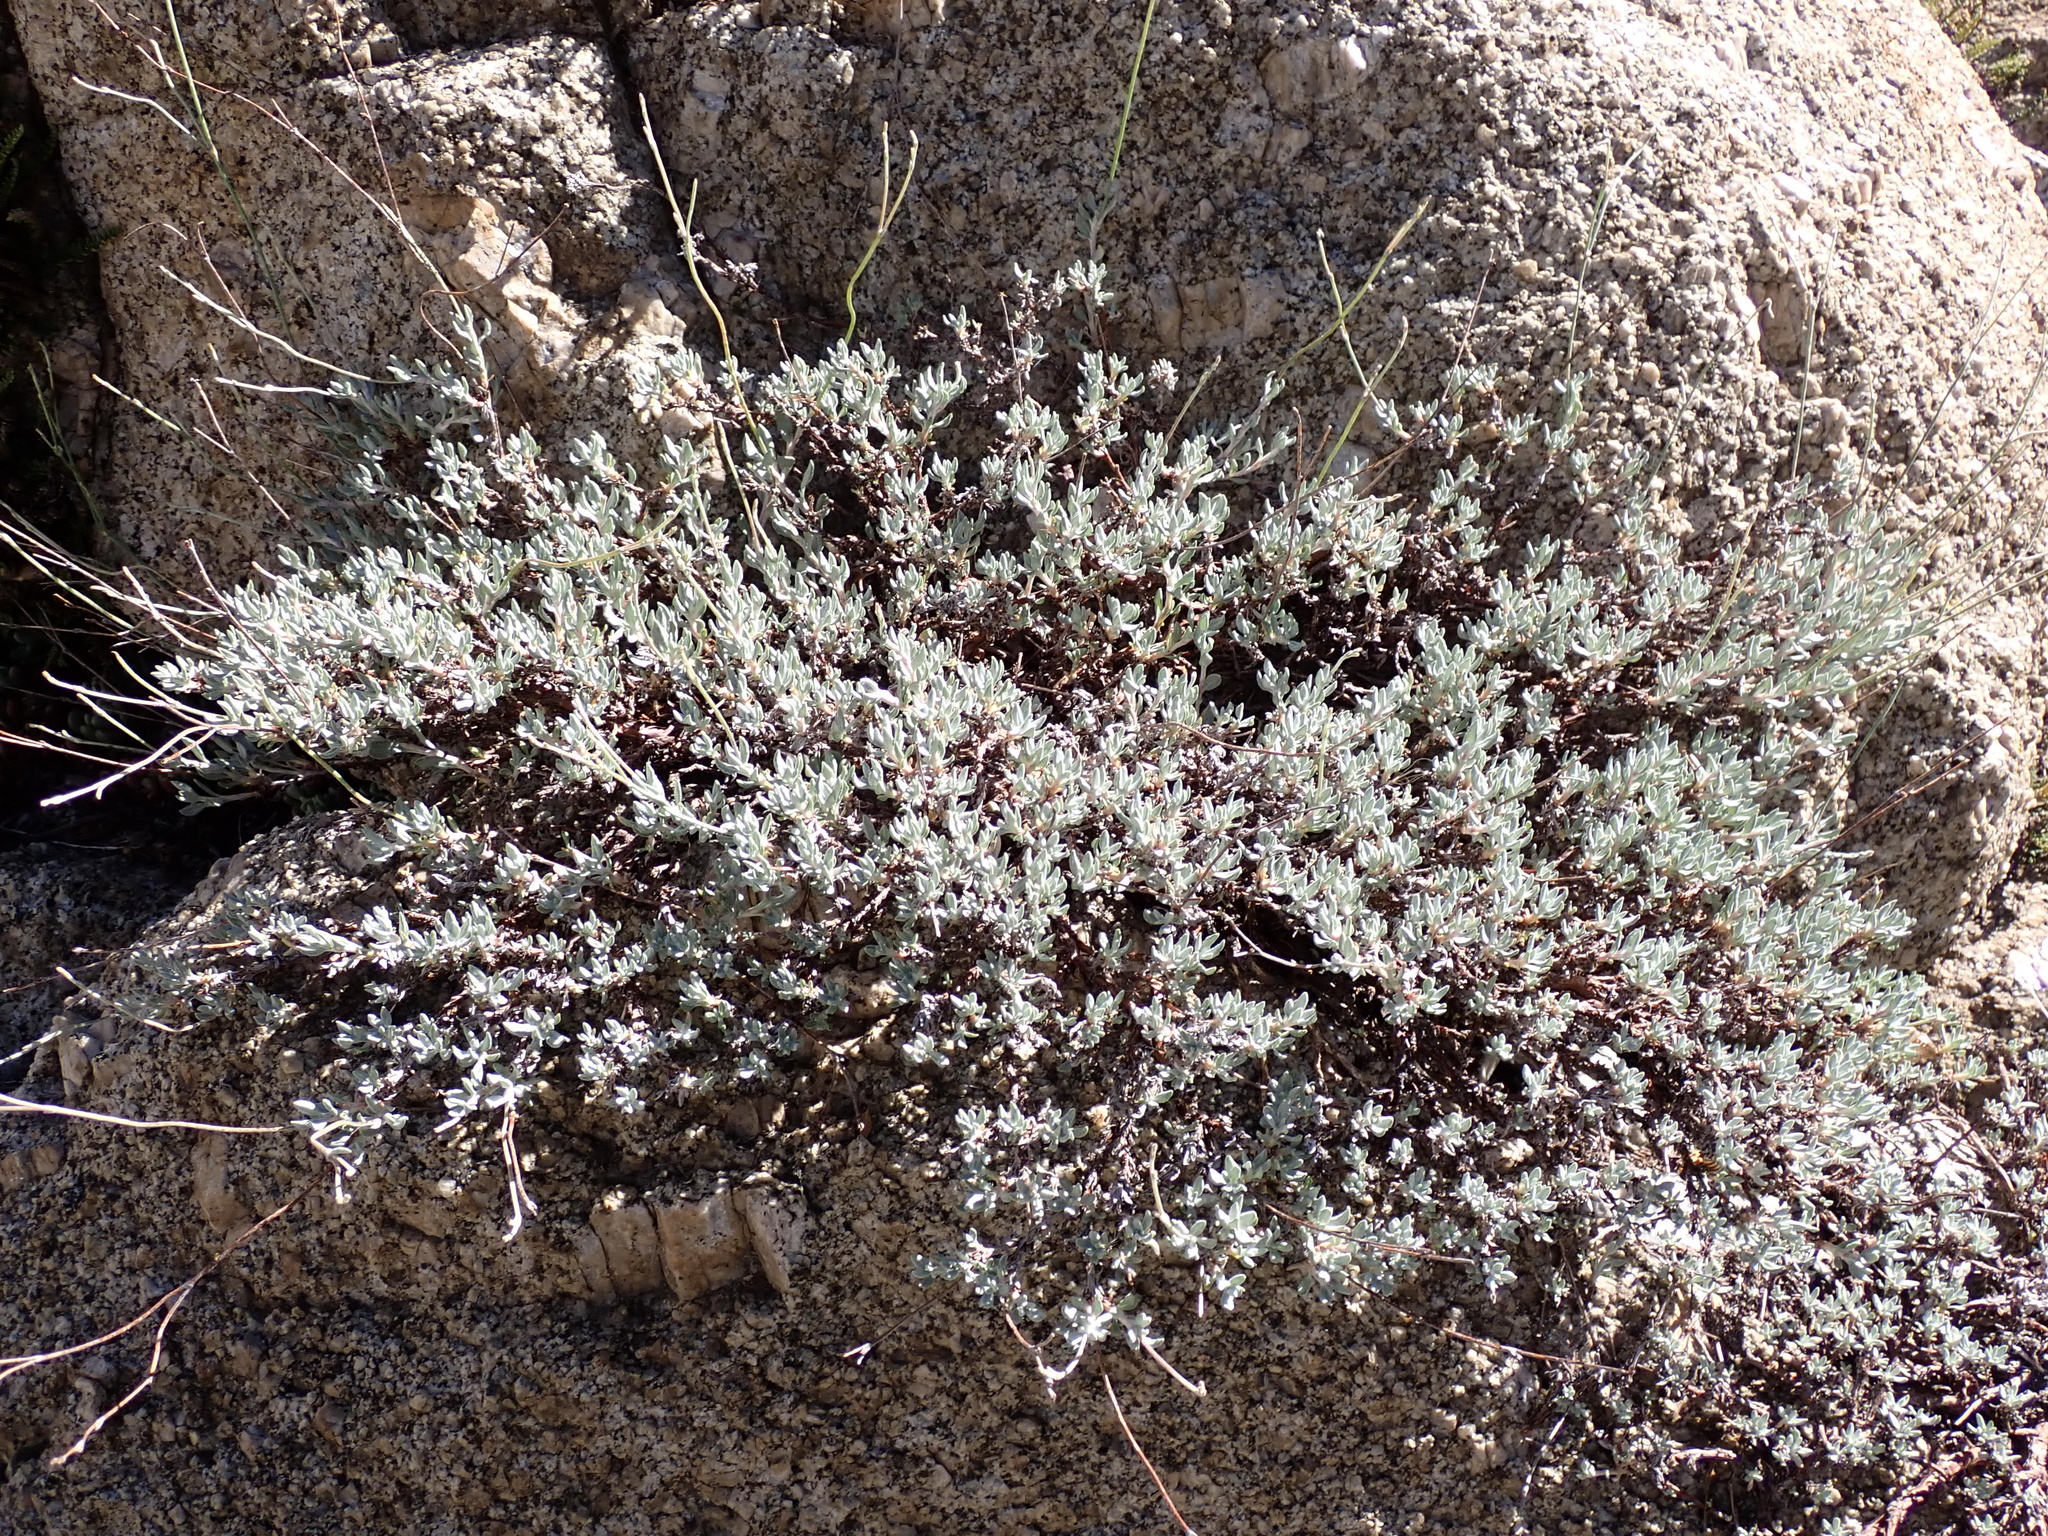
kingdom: Plantae
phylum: Tracheophyta
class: Magnoliopsida
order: Caryophyllales
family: Polygonaceae
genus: Eriogonum
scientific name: Eriogonum wrightii
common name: Bastard-sage
